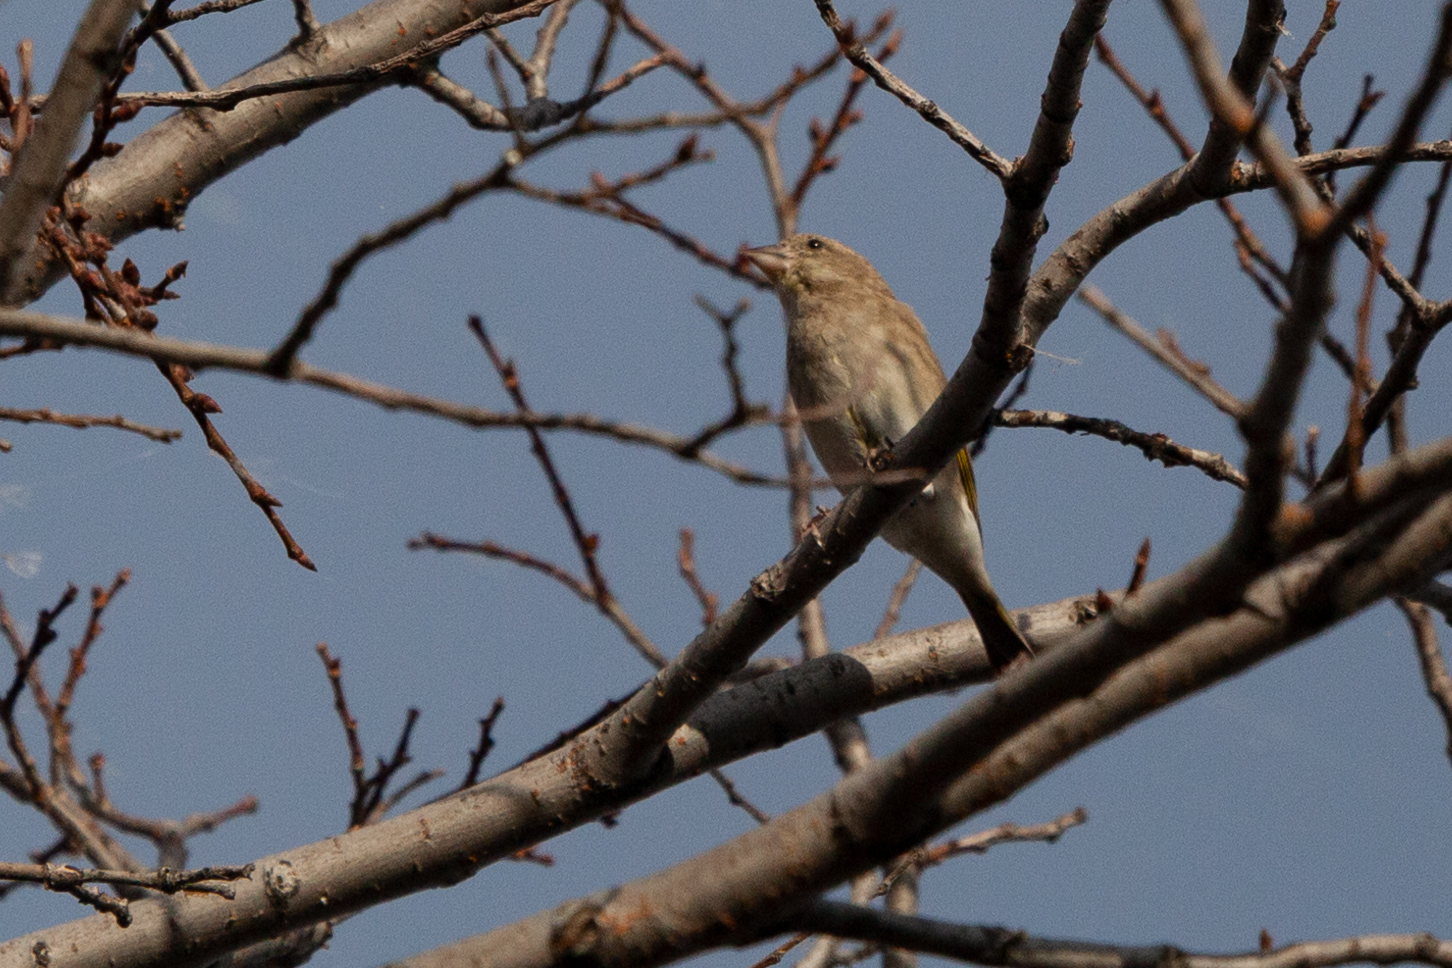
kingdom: Plantae
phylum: Tracheophyta
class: Liliopsida
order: Poales
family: Poaceae
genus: Chloris
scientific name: Chloris chloris
